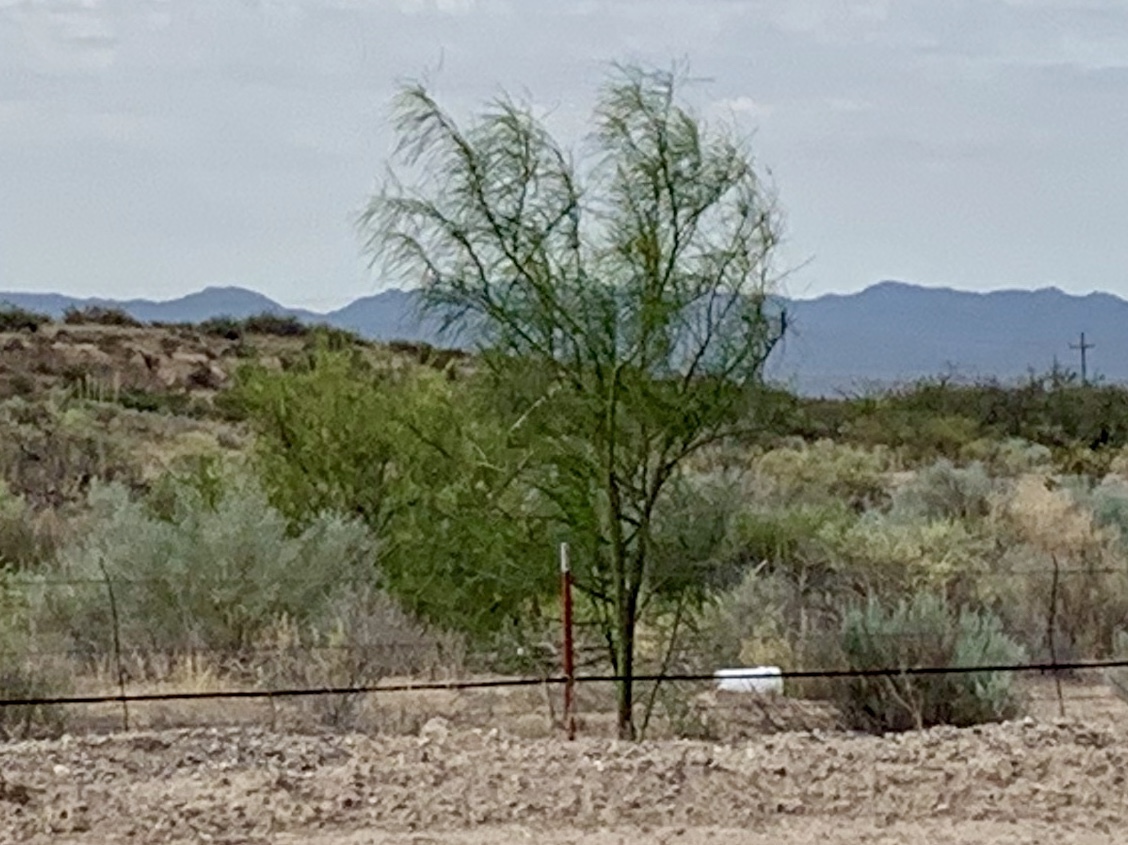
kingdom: Plantae
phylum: Tracheophyta
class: Magnoliopsida
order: Fabales
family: Fabaceae
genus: Parkinsonia
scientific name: Parkinsonia aculeata
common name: Jerusalem thorn
